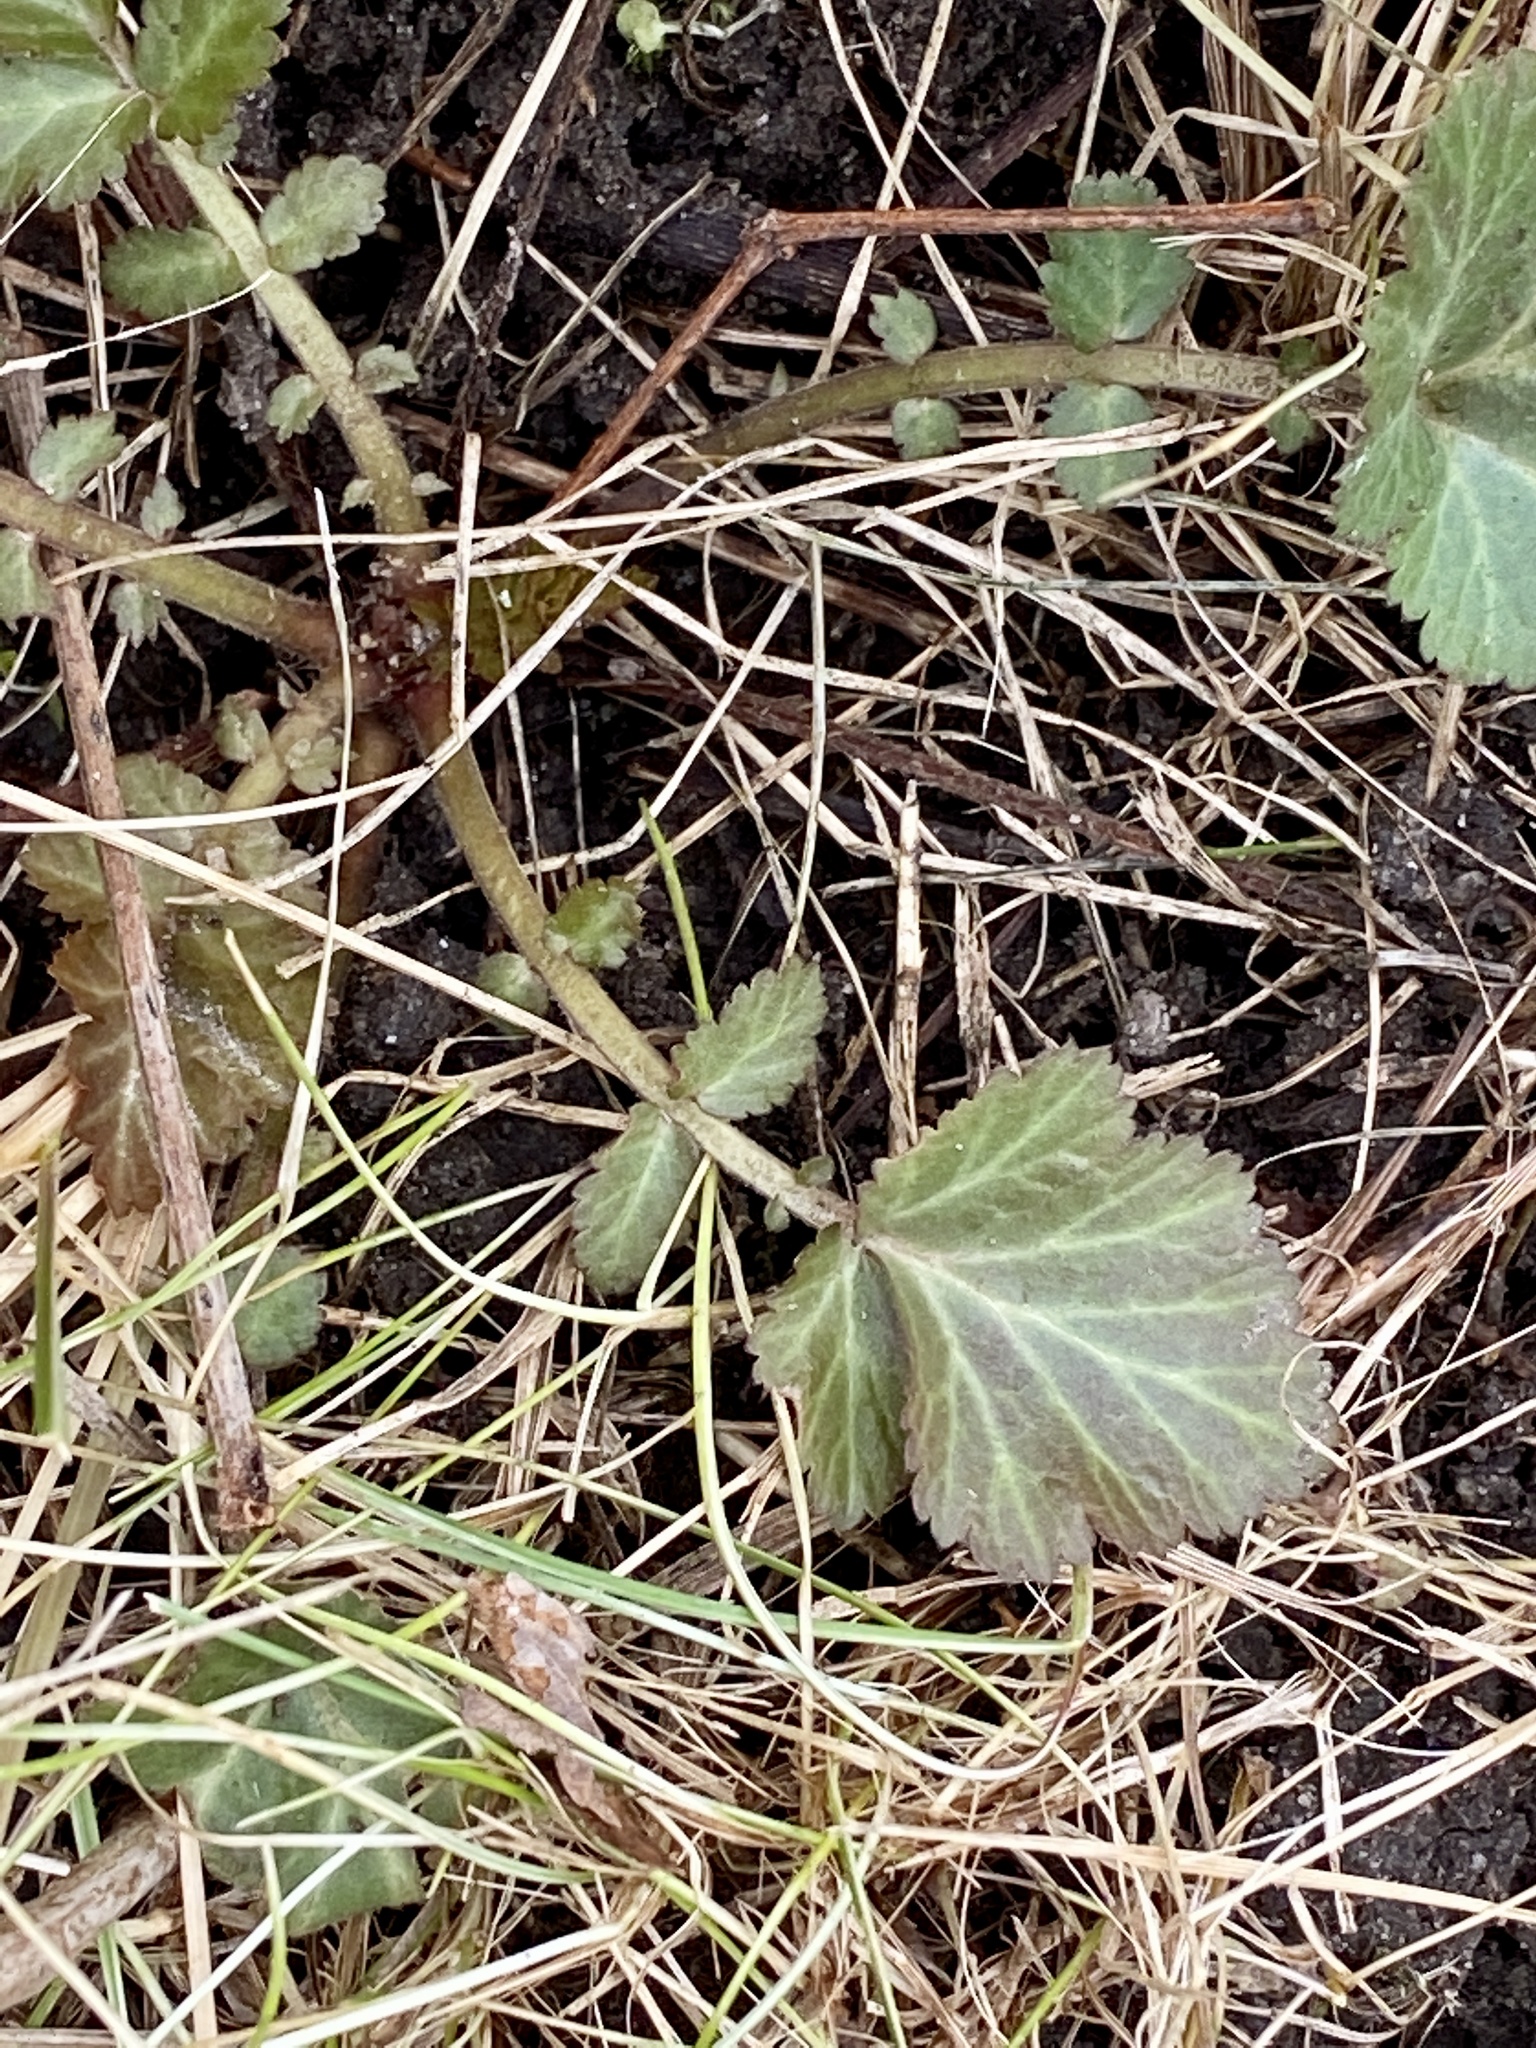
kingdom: Plantae
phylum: Tracheophyta
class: Magnoliopsida
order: Rosales
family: Rosaceae
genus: Geum
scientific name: Geum canadense
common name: White avens
